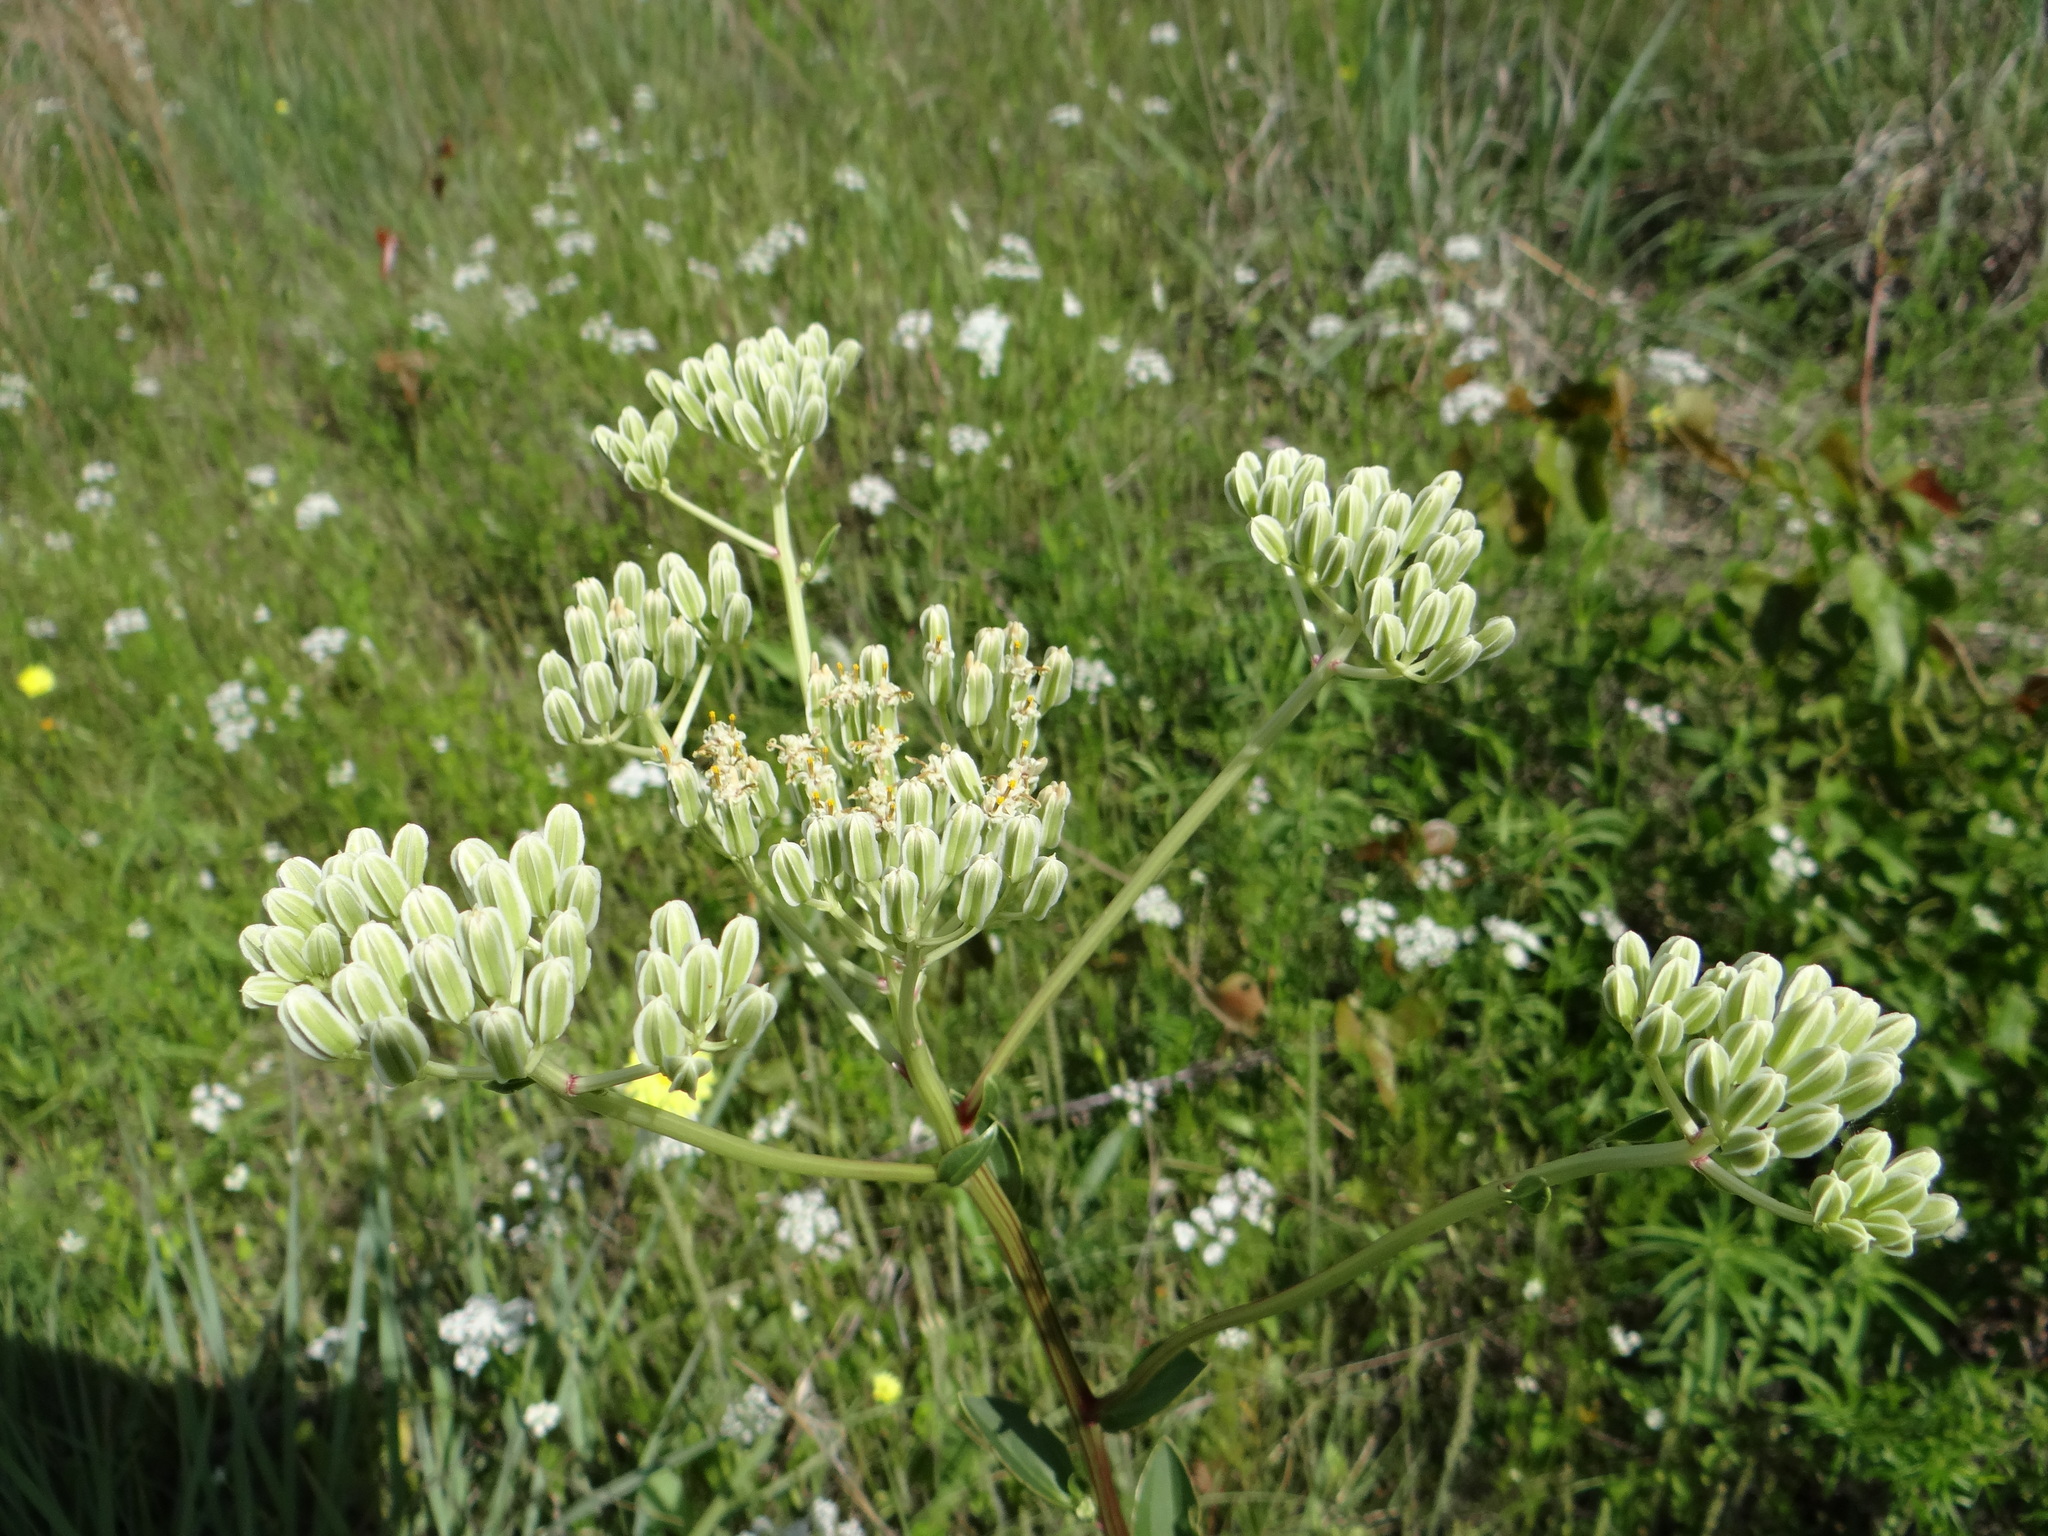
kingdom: Plantae
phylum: Tracheophyta
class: Magnoliopsida
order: Asterales
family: Asteraceae
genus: Arnoglossum
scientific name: Arnoglossum plantagineum
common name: Groove-stemmed indian-plantain
